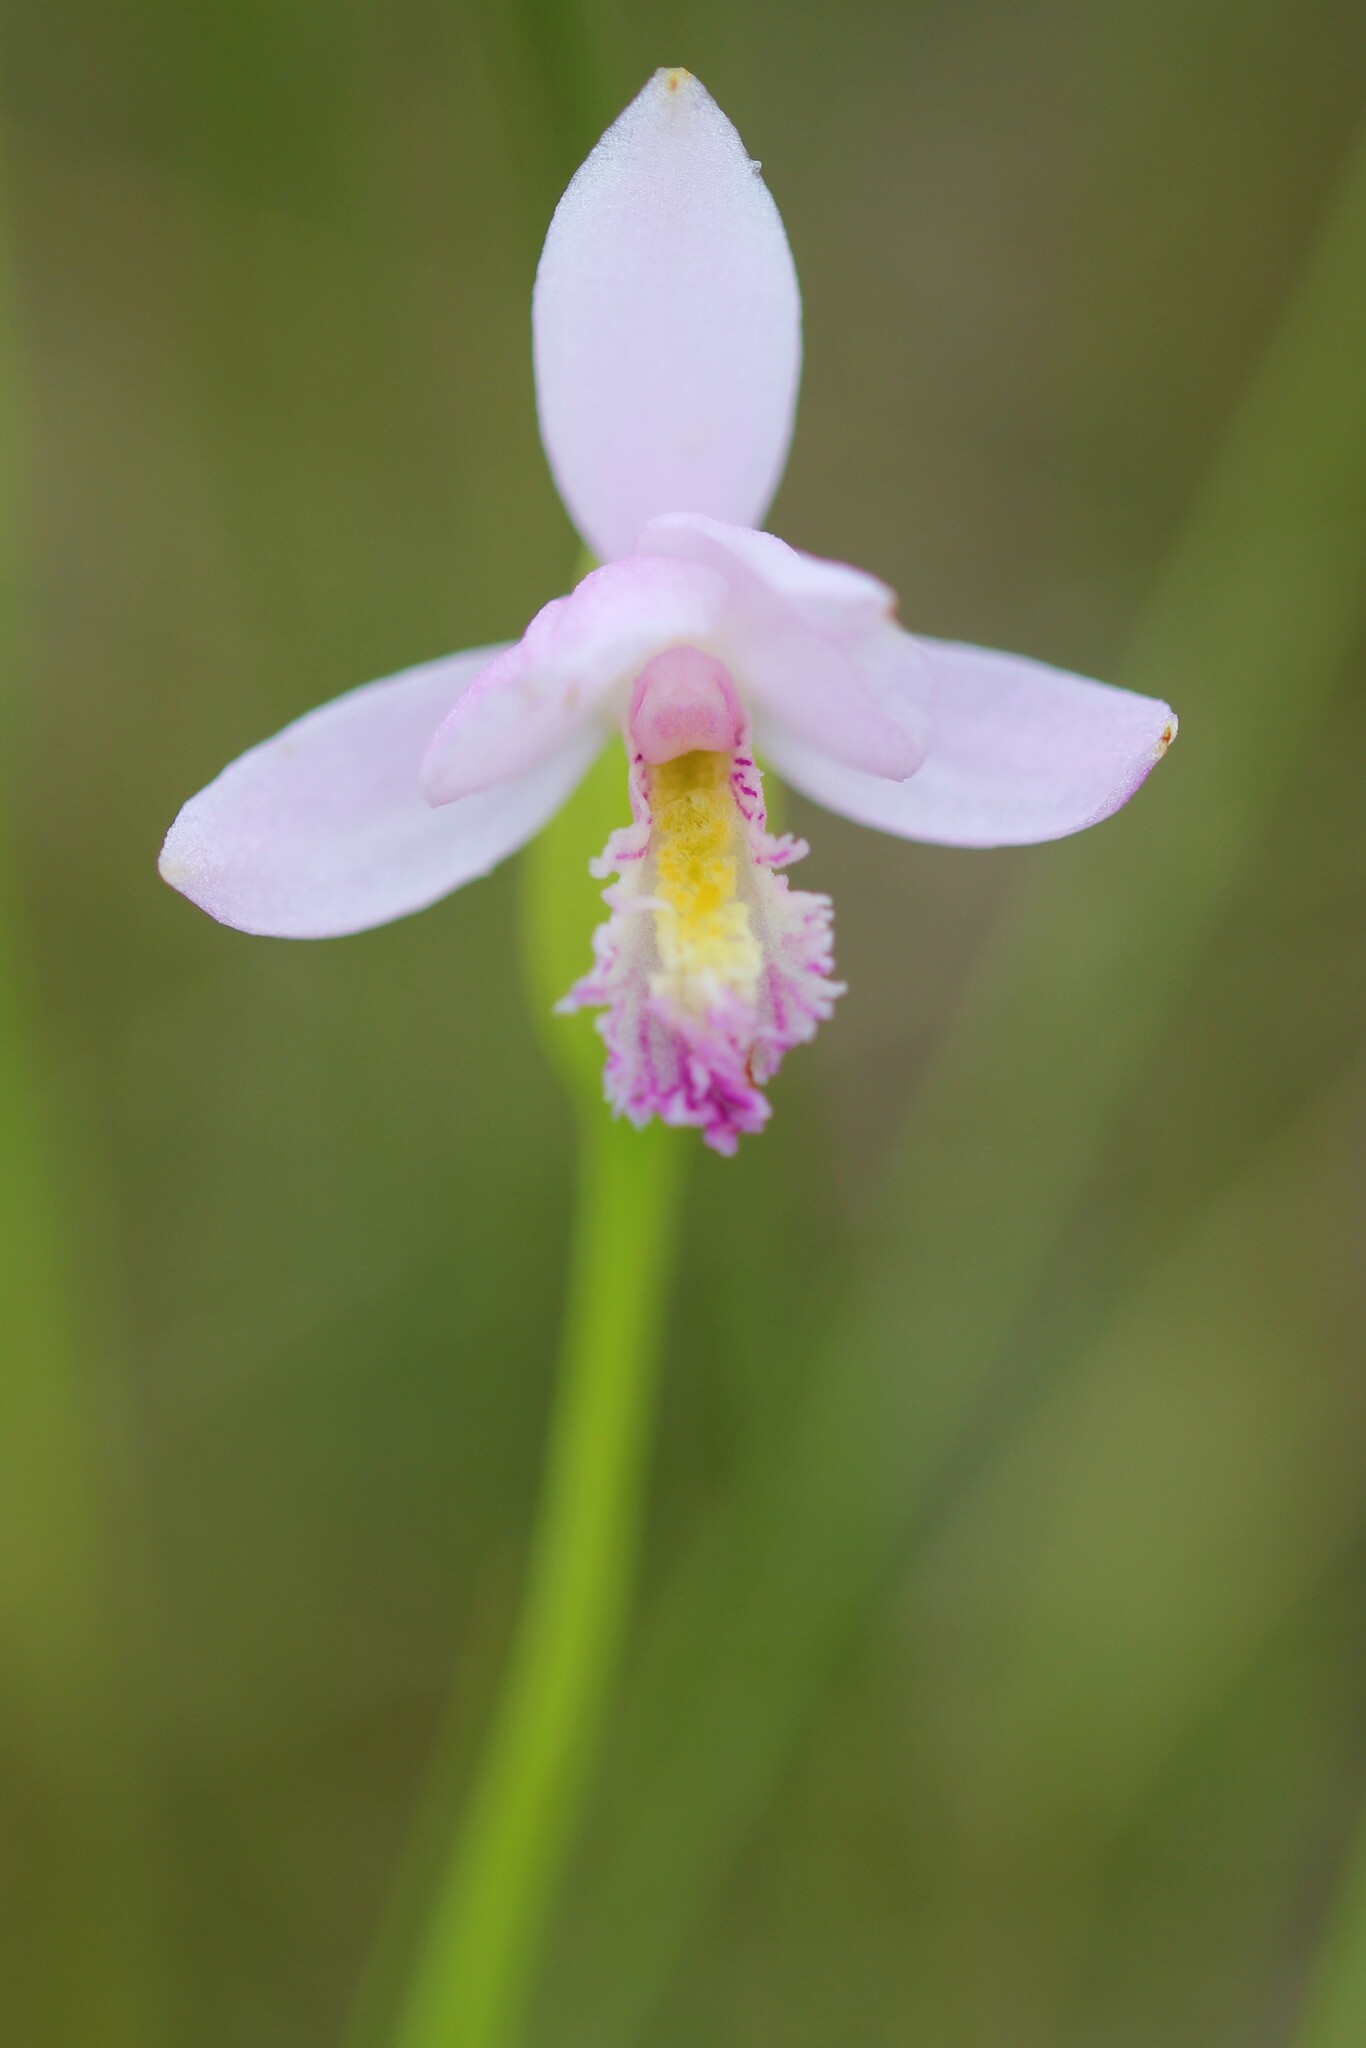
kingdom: Plantae
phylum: Tracheophyta
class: Liliopsida
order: Asparagales
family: Orchidaceae
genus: Pogonia
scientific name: Pogonia ophioglossoides
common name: Rose pogonia
